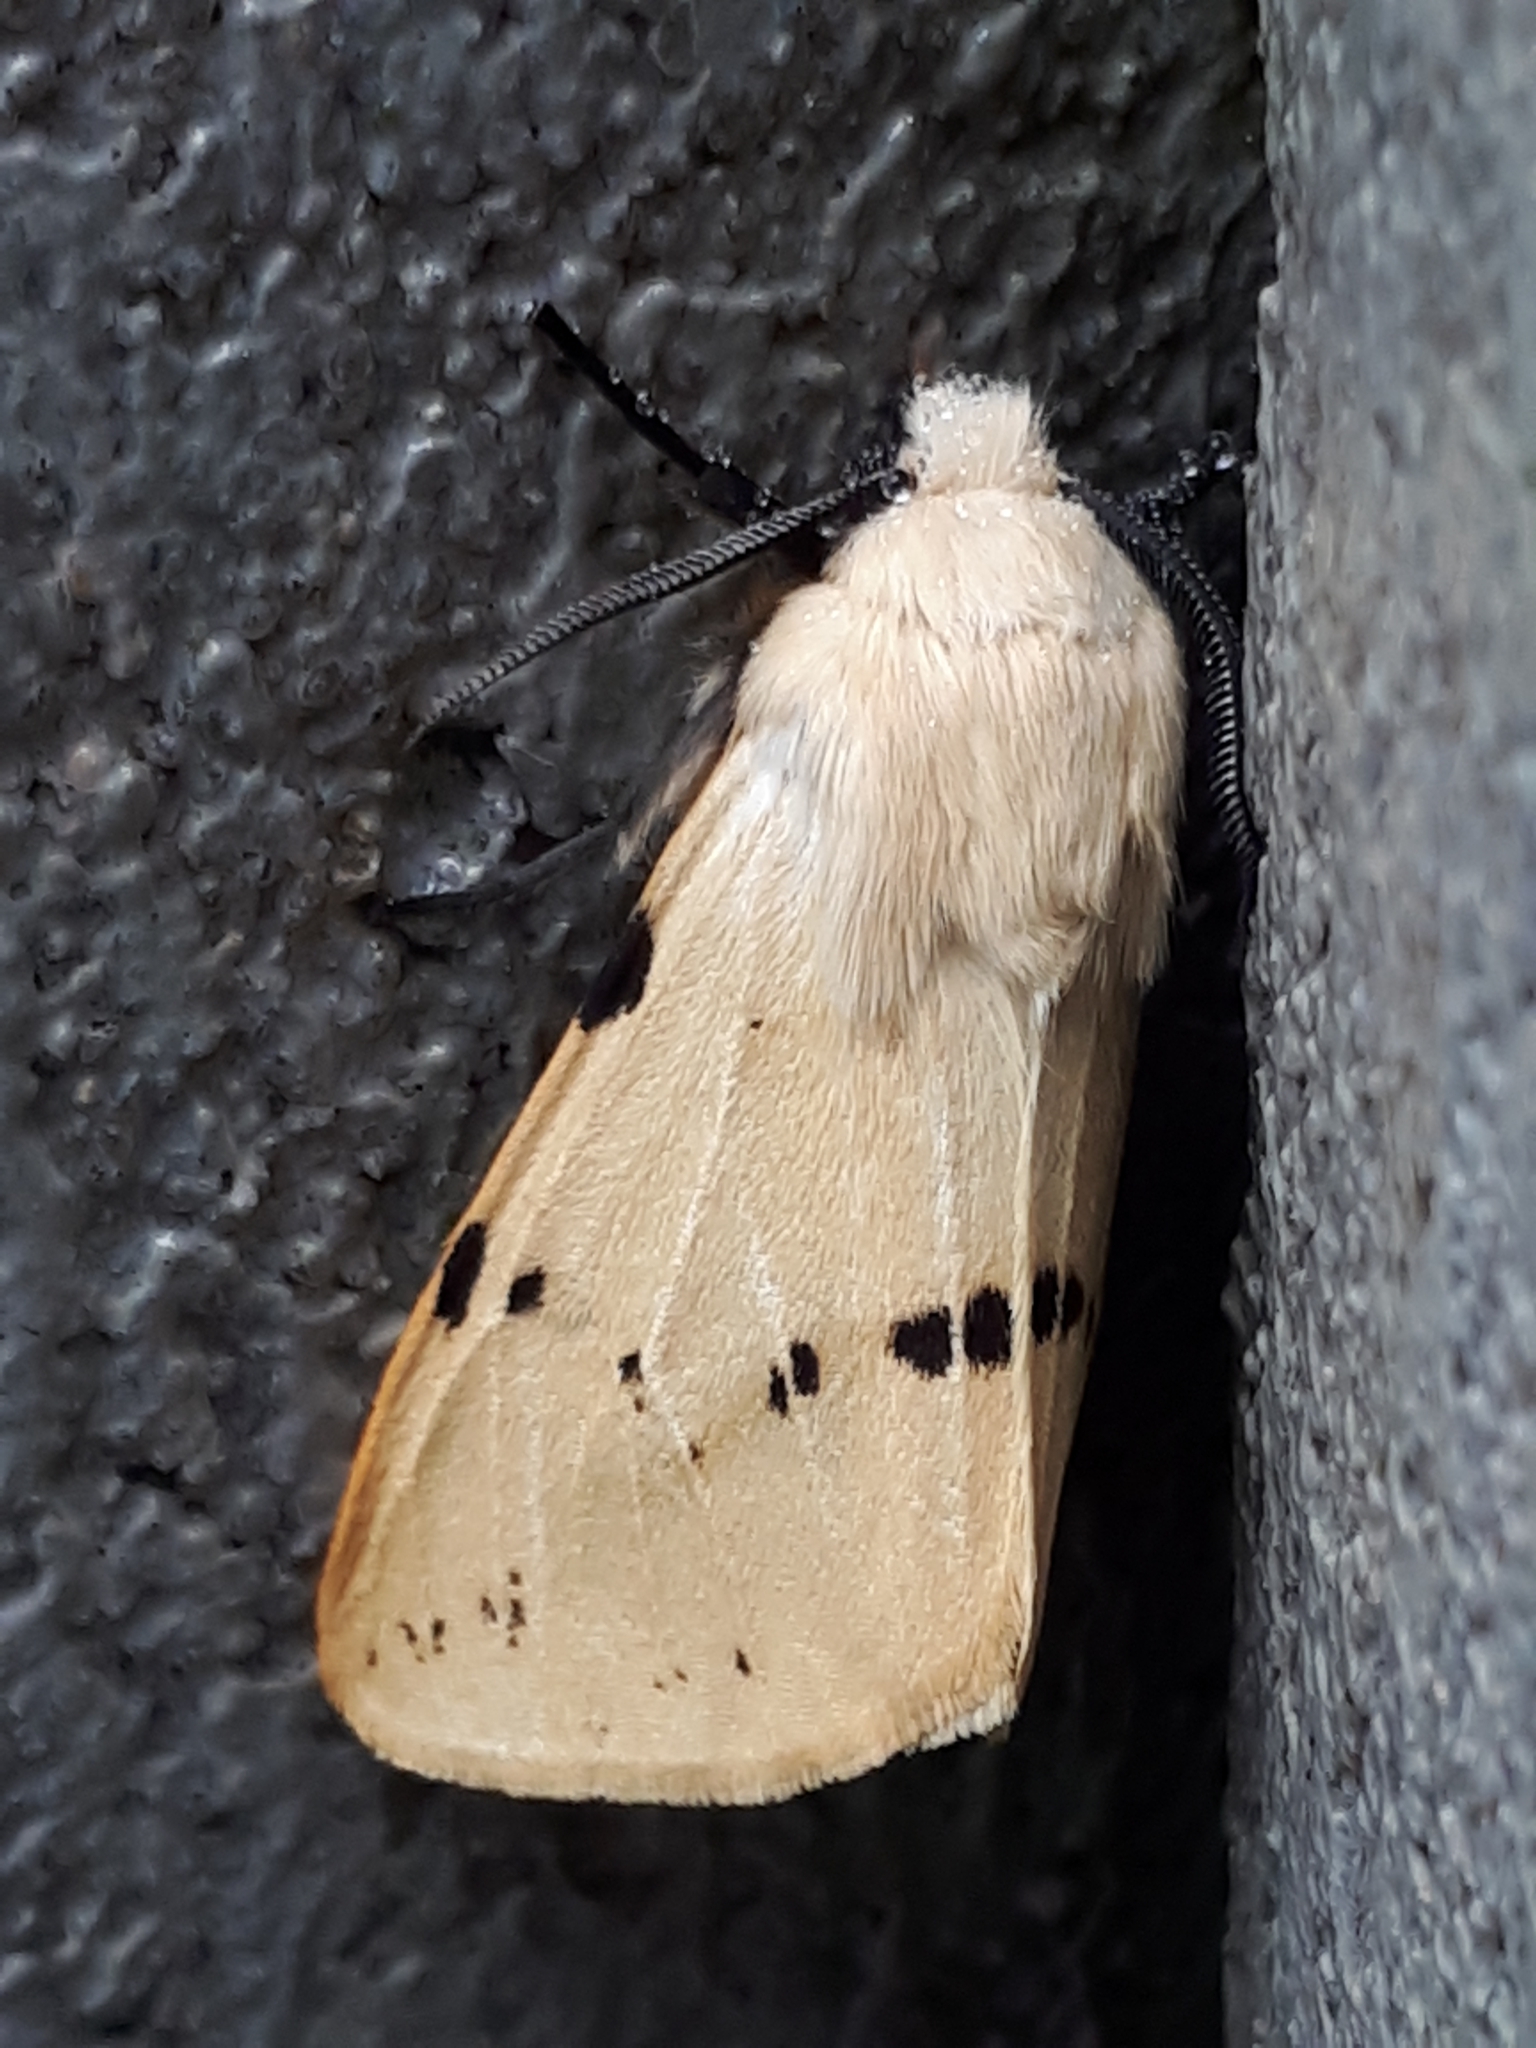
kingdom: Animalia
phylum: Arthropoda
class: Insecta
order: Lepidoptera
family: Erebidae
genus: Spilarctia
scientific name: Spilarctia lutea
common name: Buff ermine
